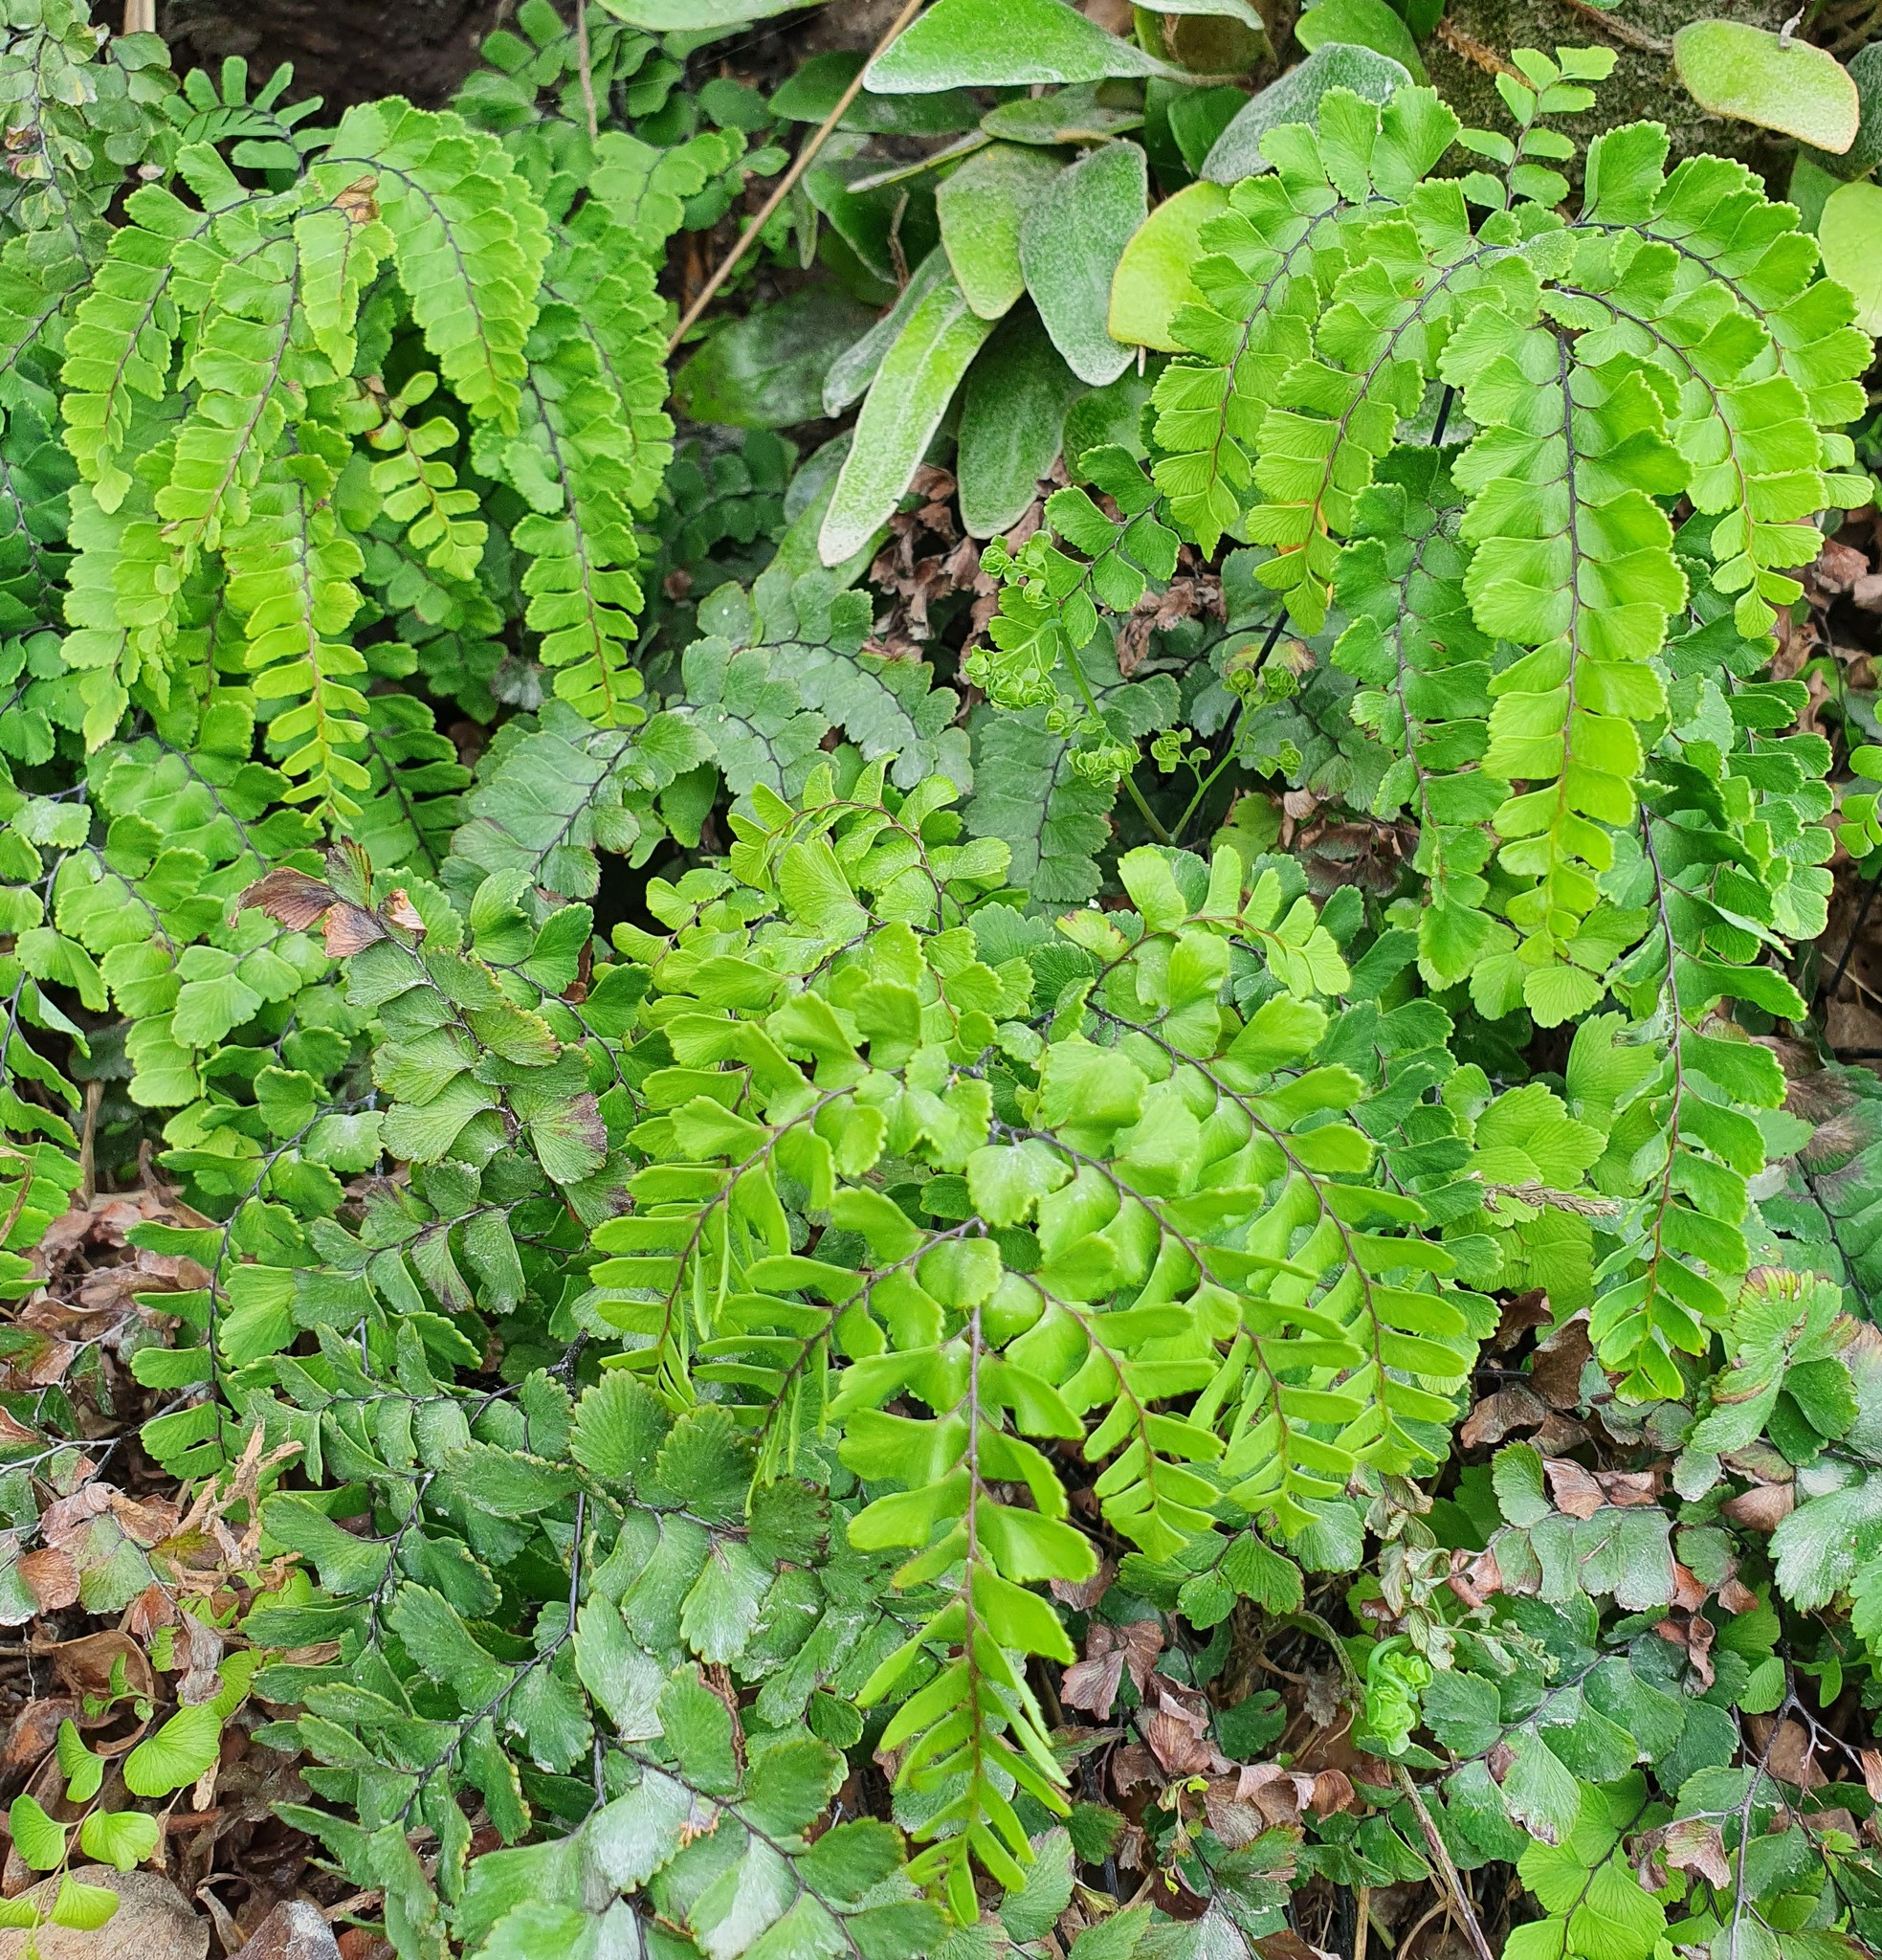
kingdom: Plantae
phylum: Tracheophyta
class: Polypodiopsida
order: Polypodiales
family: Pteridaceae
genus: Adiantum
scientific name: Adiantum cunninghamii
